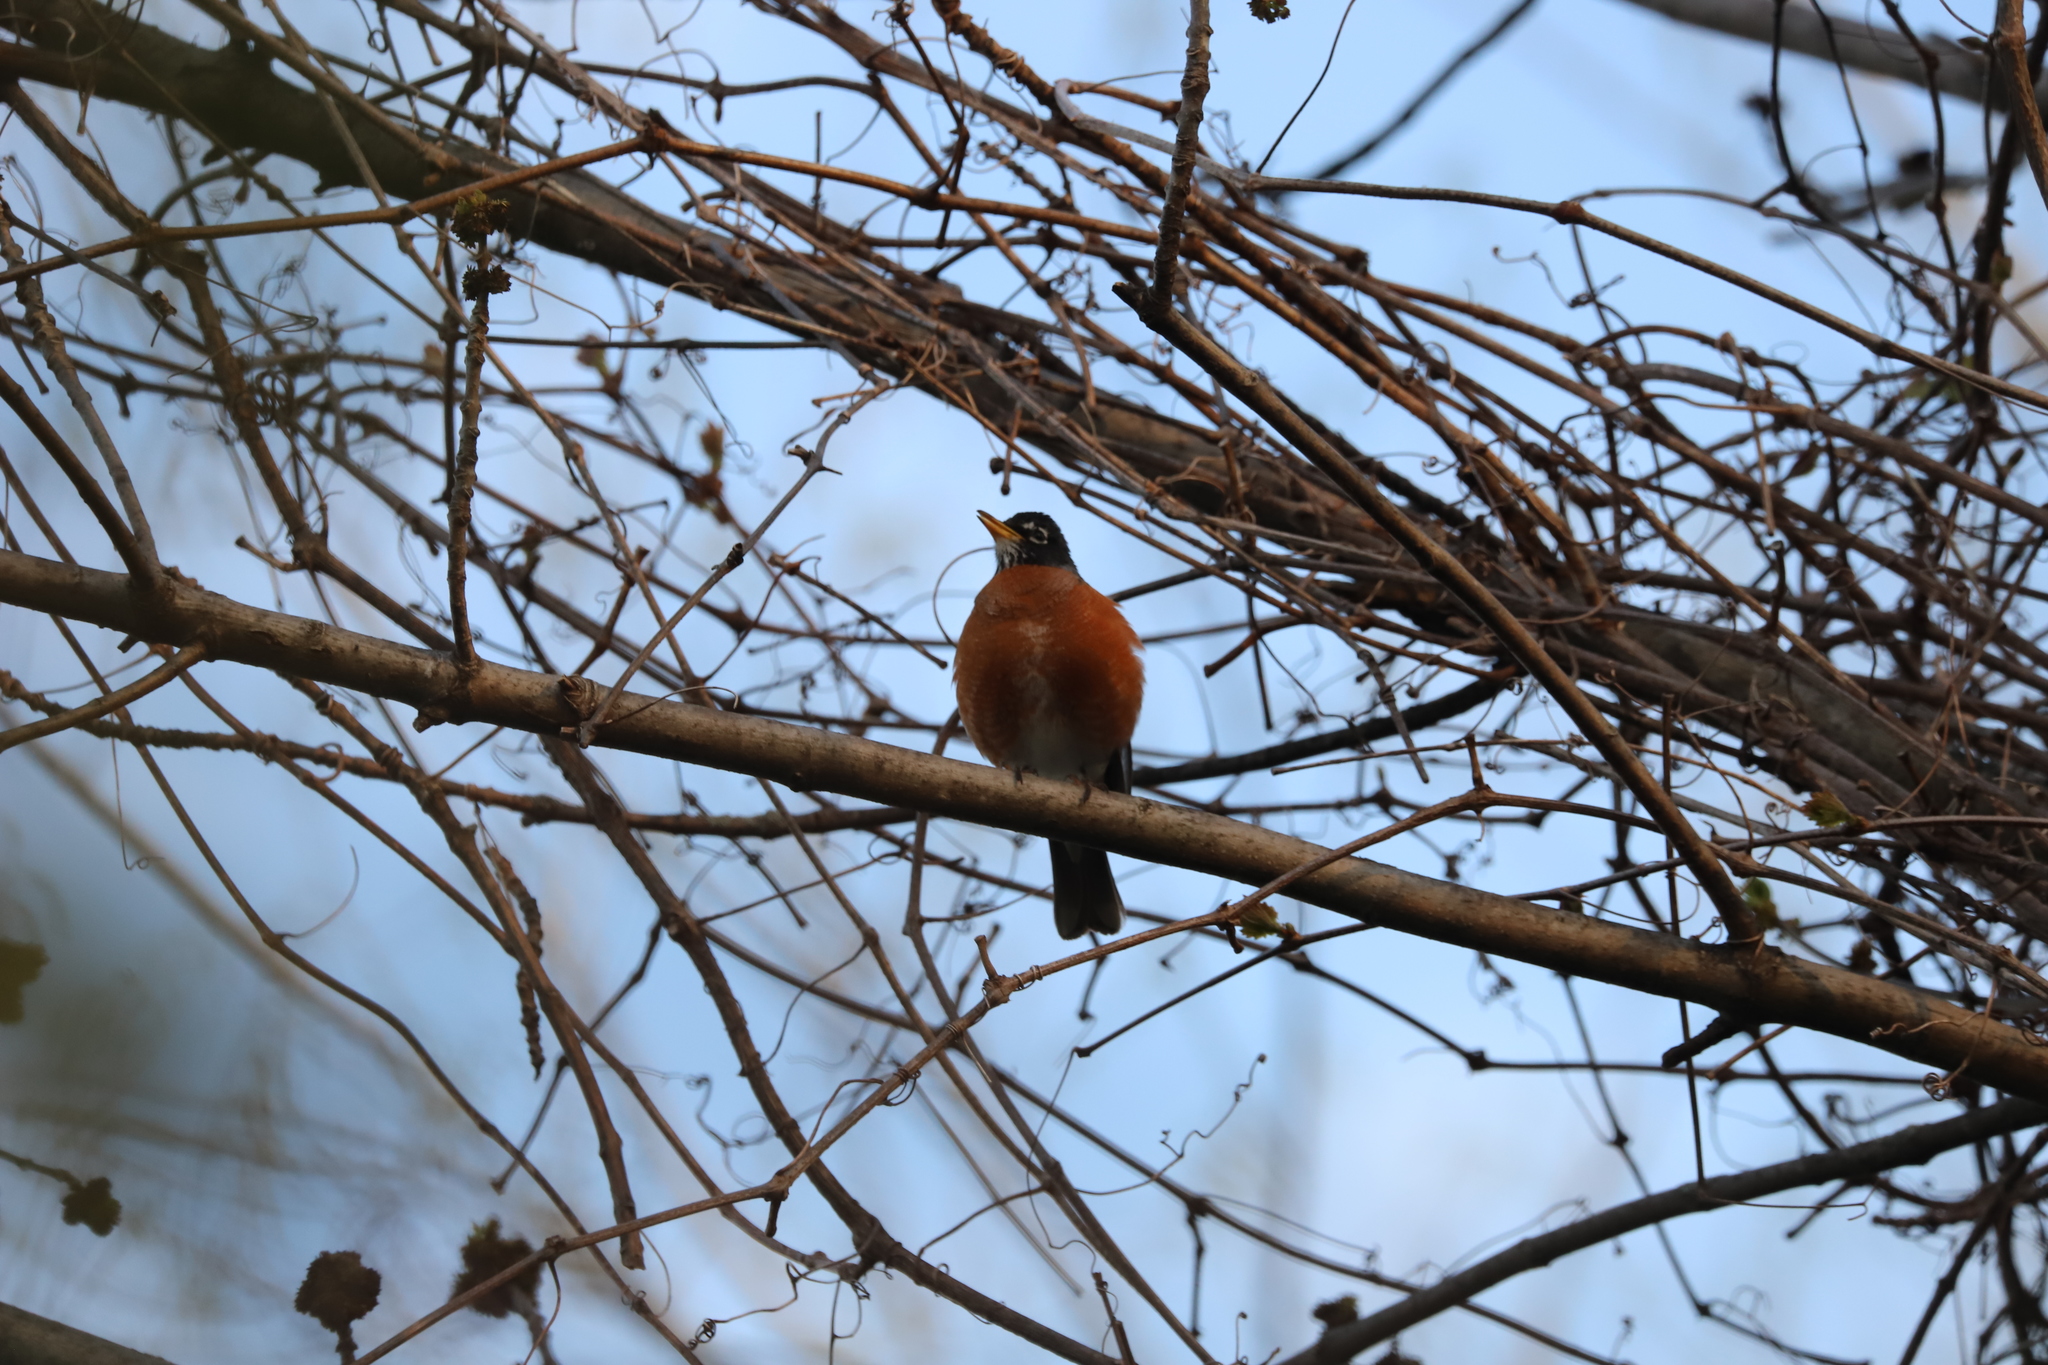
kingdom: Animalia
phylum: Chordata
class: Aves
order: Passeriformes
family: Turdidae
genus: Turdus
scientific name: Turdus migratorius
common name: American robin
